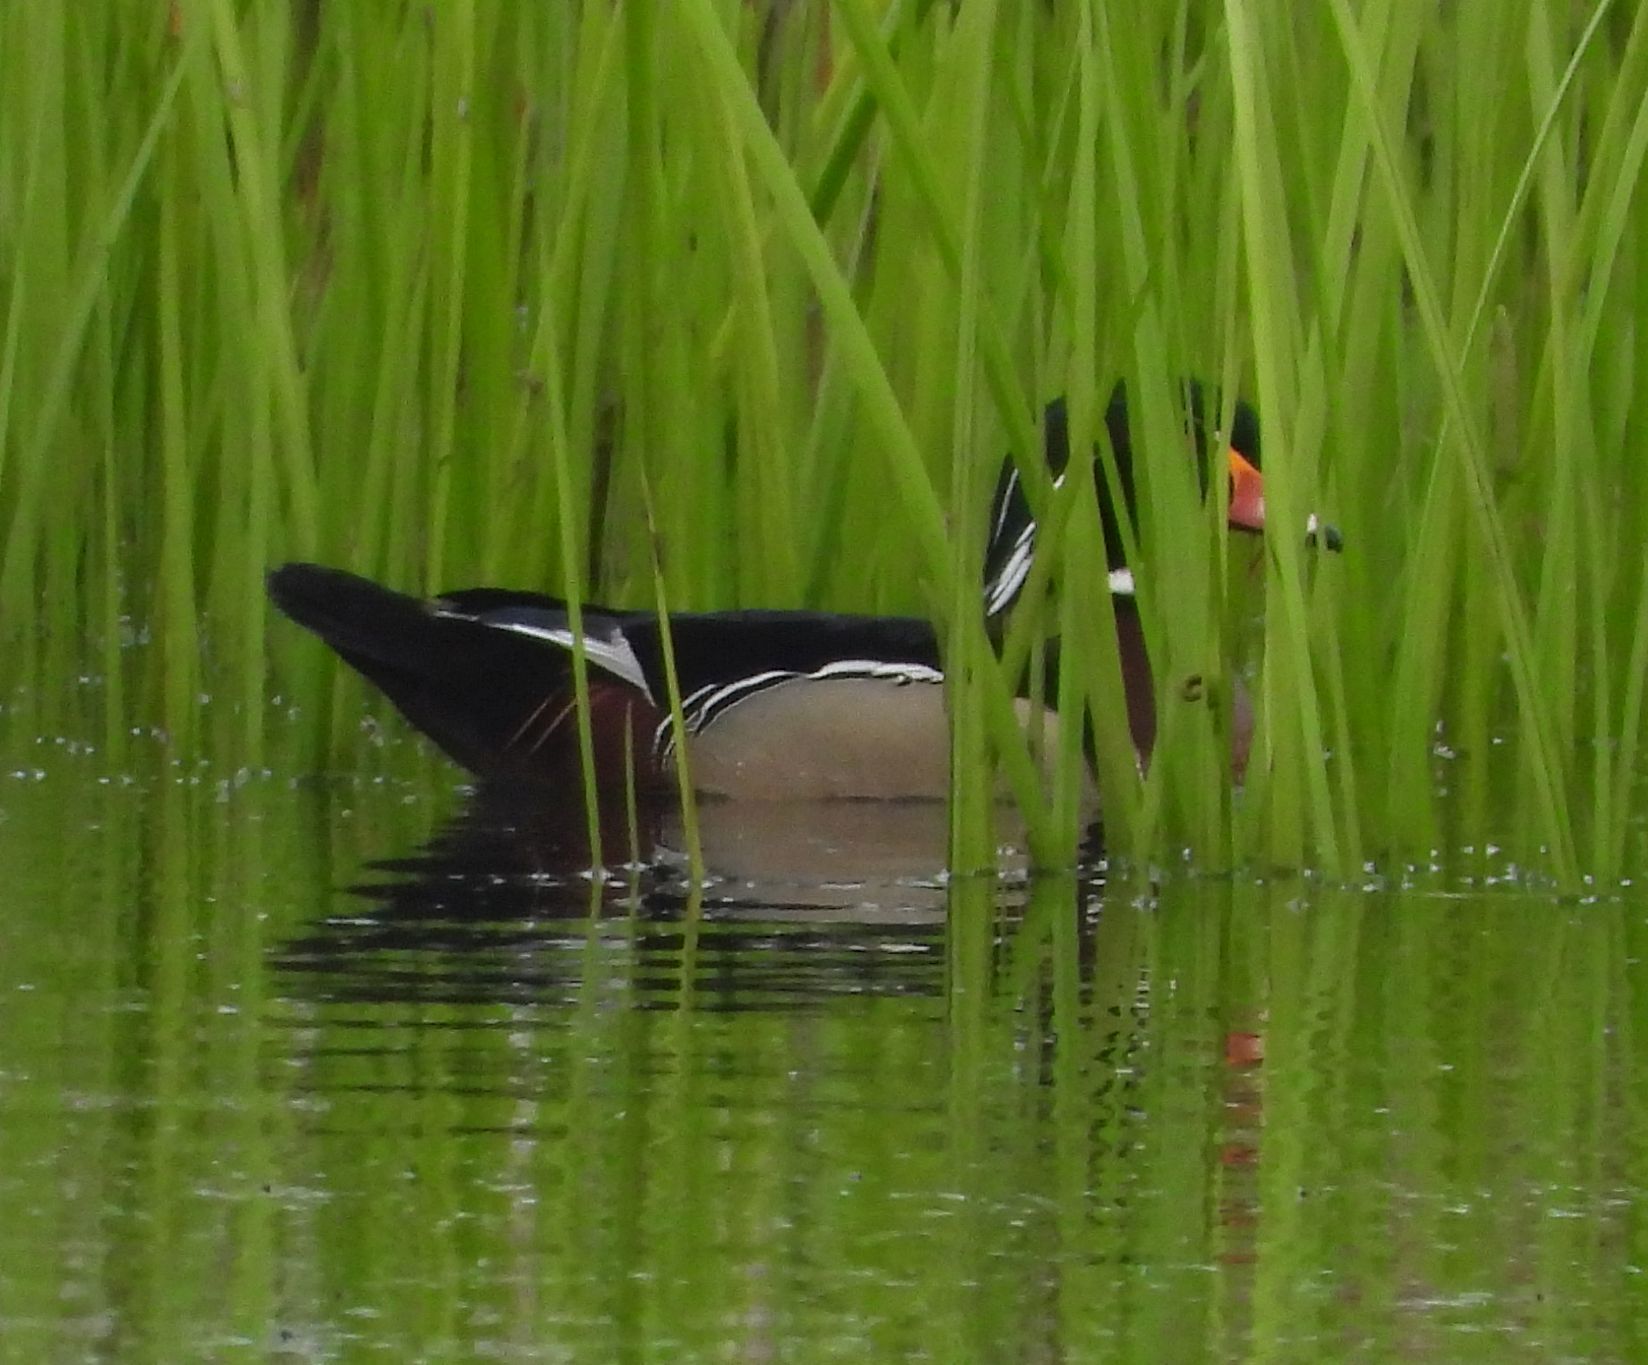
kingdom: Animalia
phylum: Chordata
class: Aves
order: Anseriformes
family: Anatidae
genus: Aix
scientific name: Aix sponsa
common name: Wood duck
